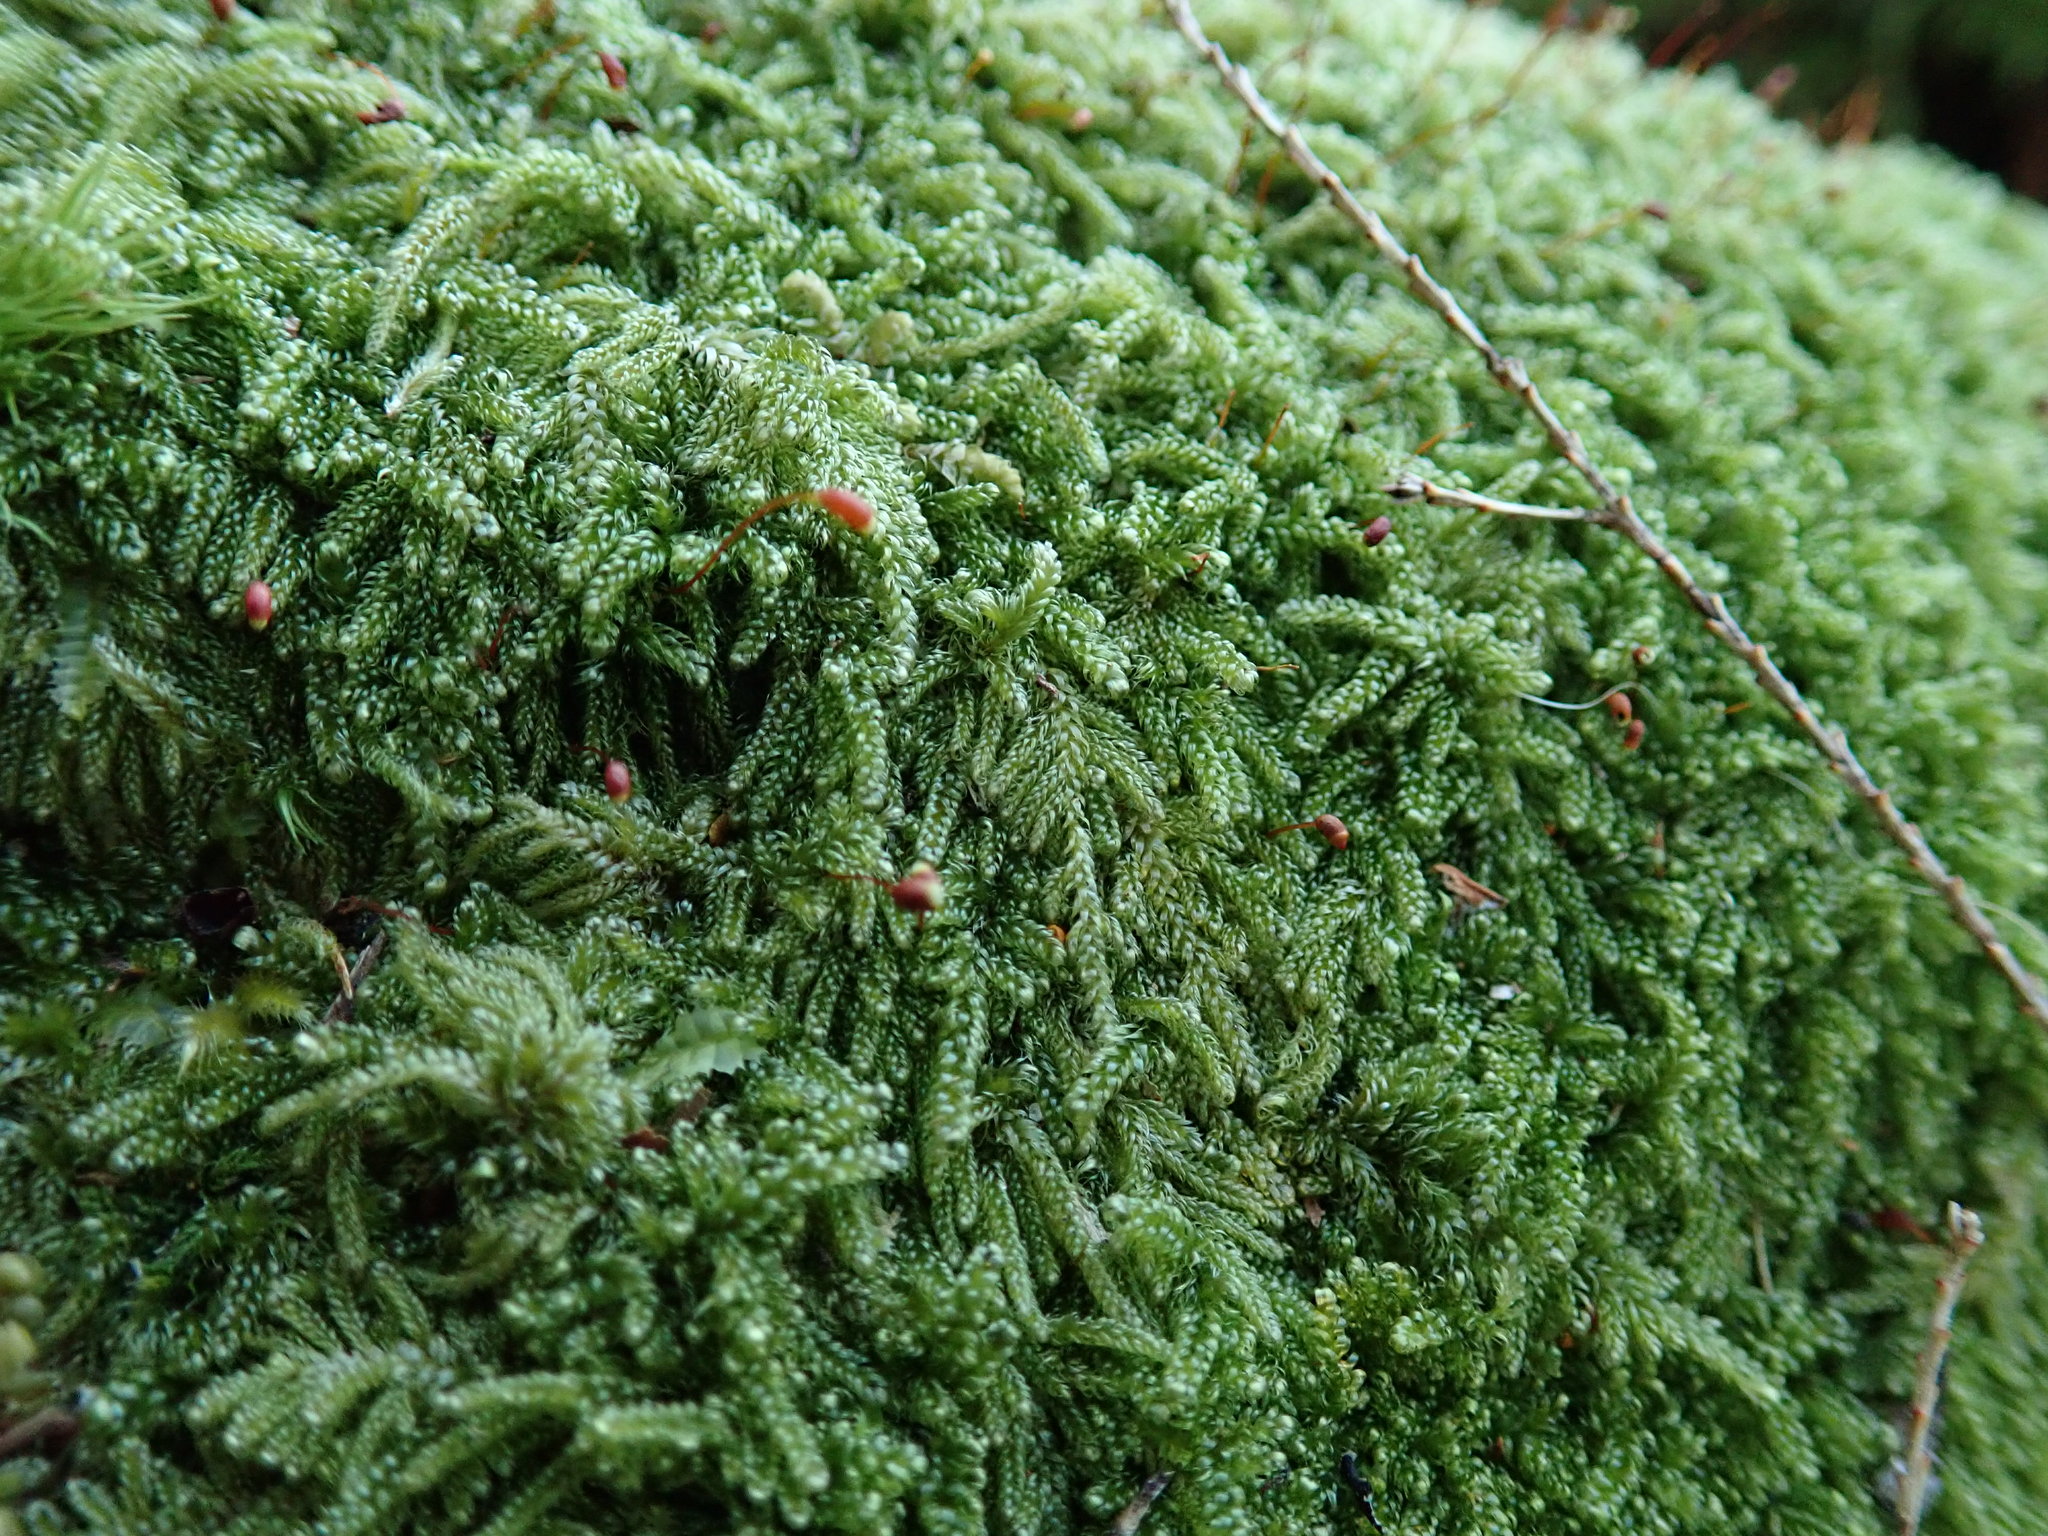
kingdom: Plantae
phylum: Bryophyta
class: Bryopsida
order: Hypnales
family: Pylaisiadelphaceae
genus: Trochophyllohypnum
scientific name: Trochophyllohypnum circinale
